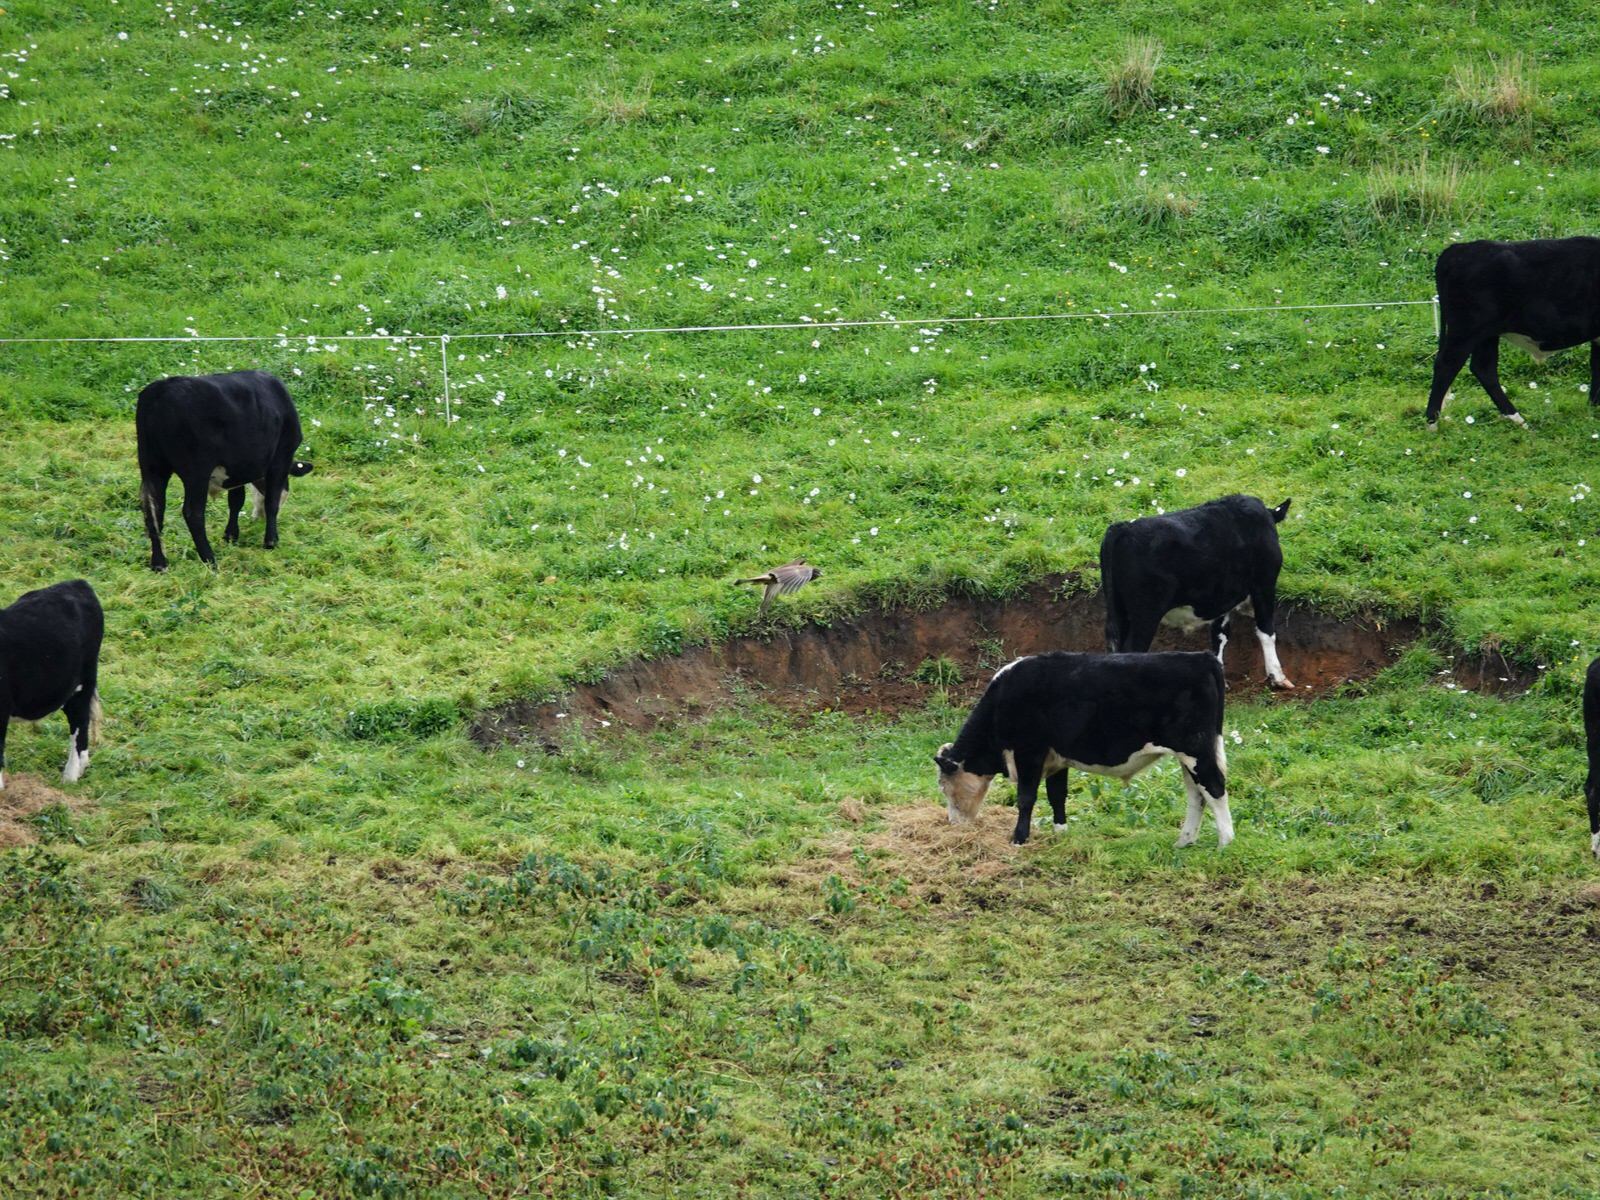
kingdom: Animalia
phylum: Chordata
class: Aves
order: Accipitriformes
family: Accipitridae
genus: Circus
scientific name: Circus approximans
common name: Swamp harrier
